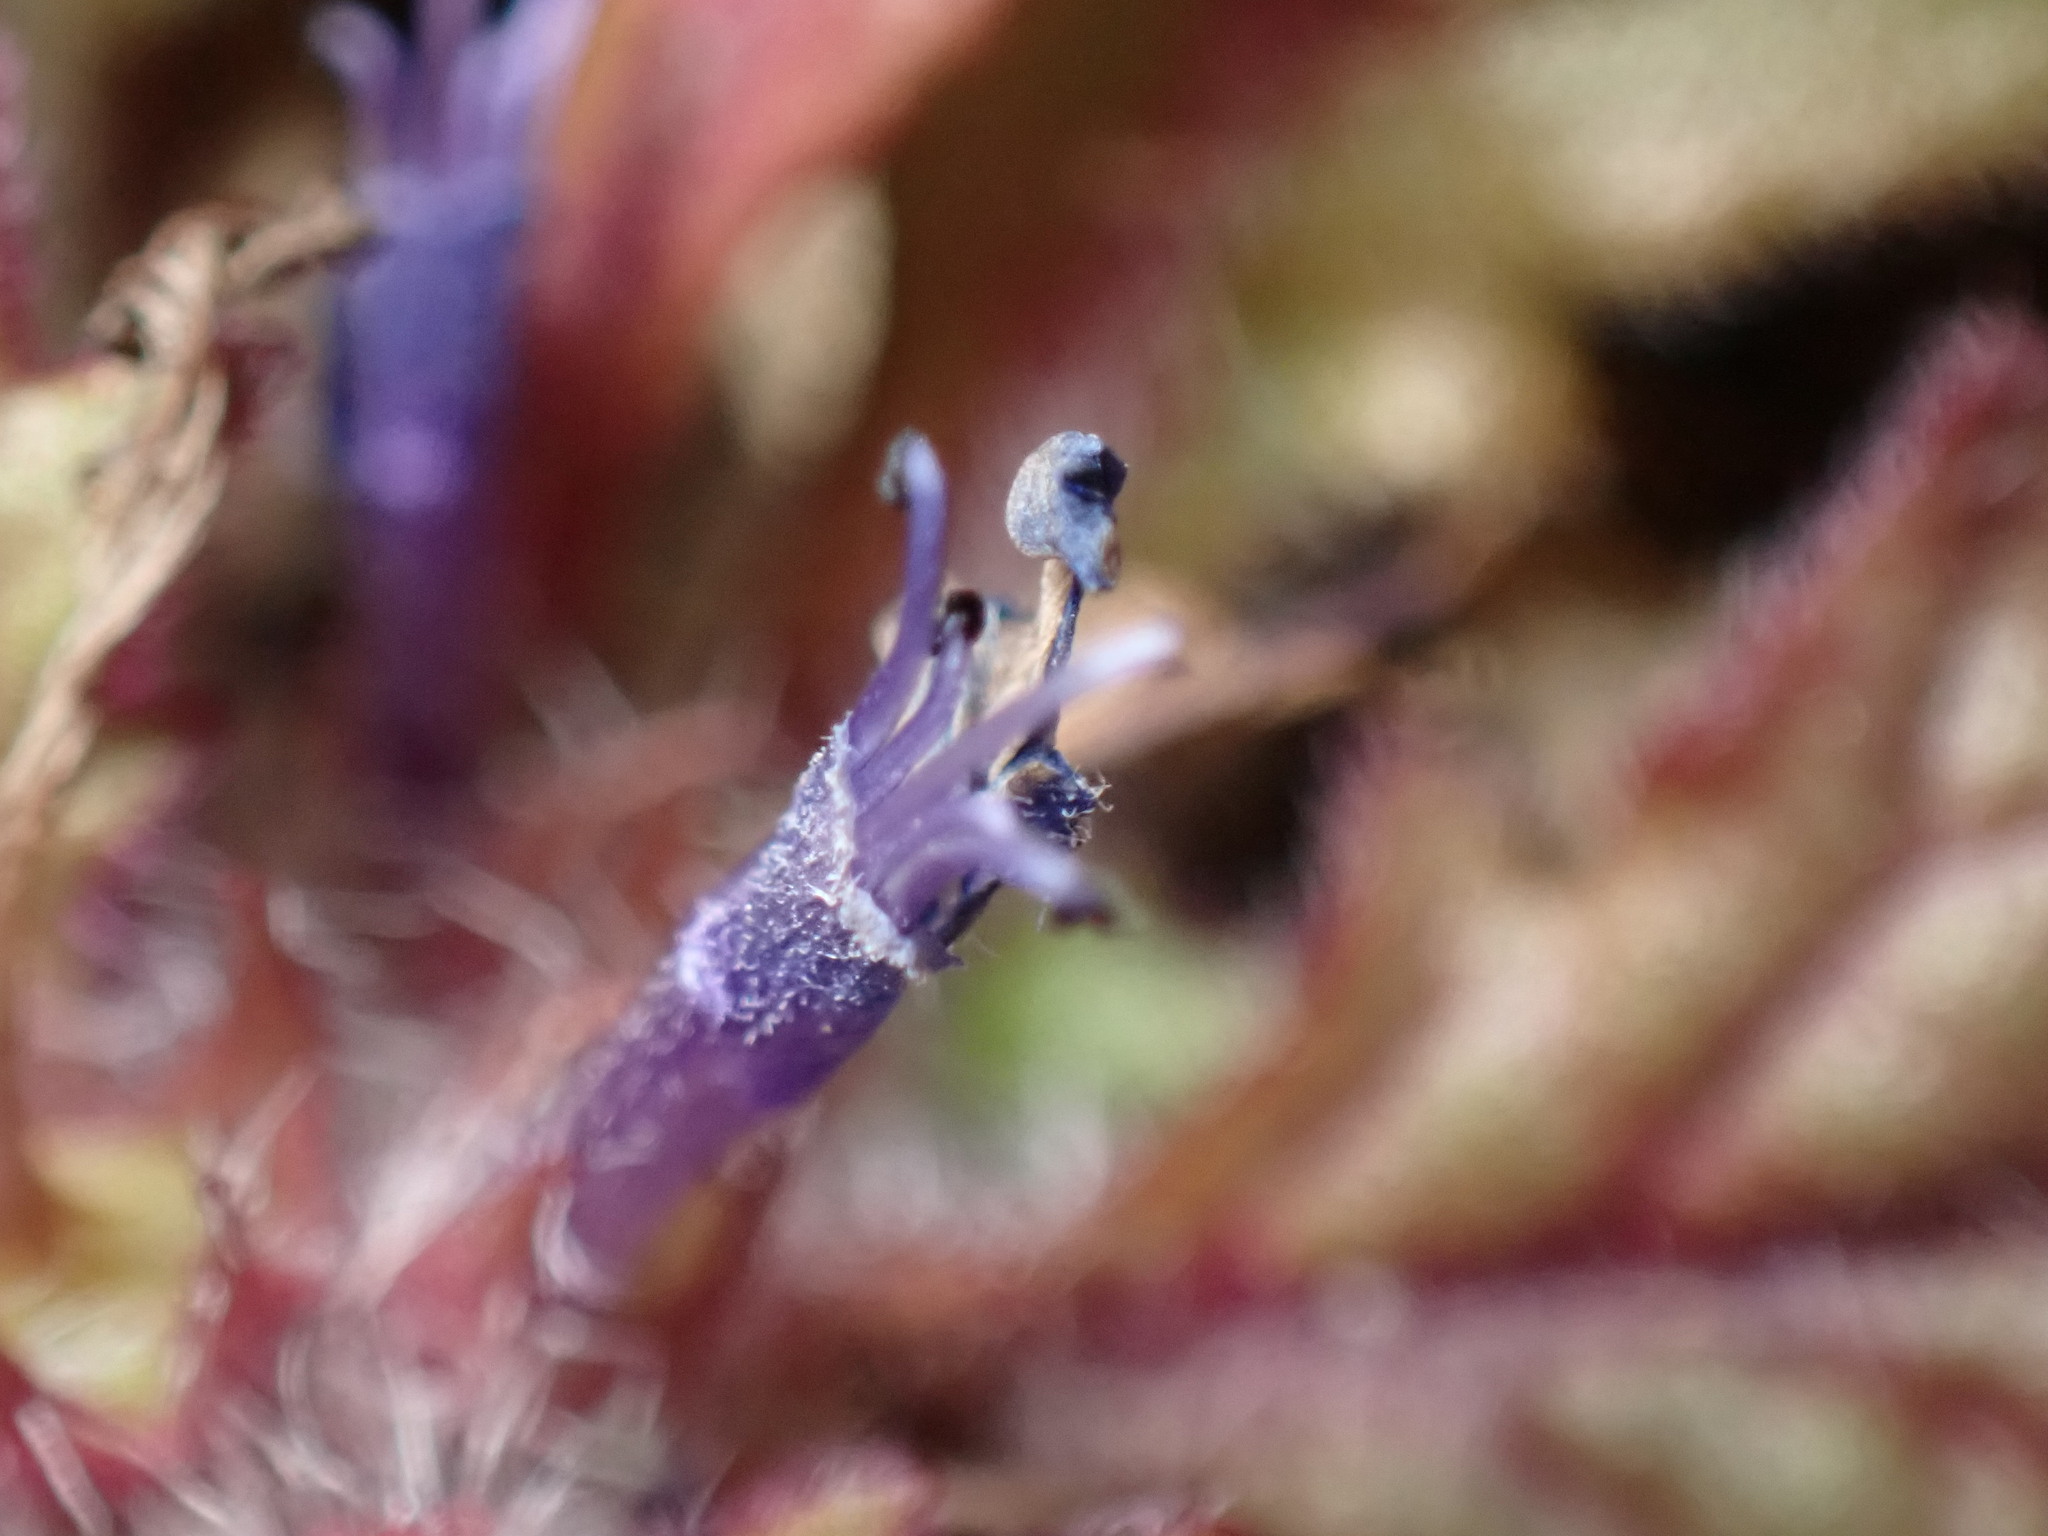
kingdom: Plantae
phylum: Tracheophyta
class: Magnoliopsida
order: Lamiales
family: Lamiaceae
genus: Ajuga
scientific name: Ajuga decumbens
